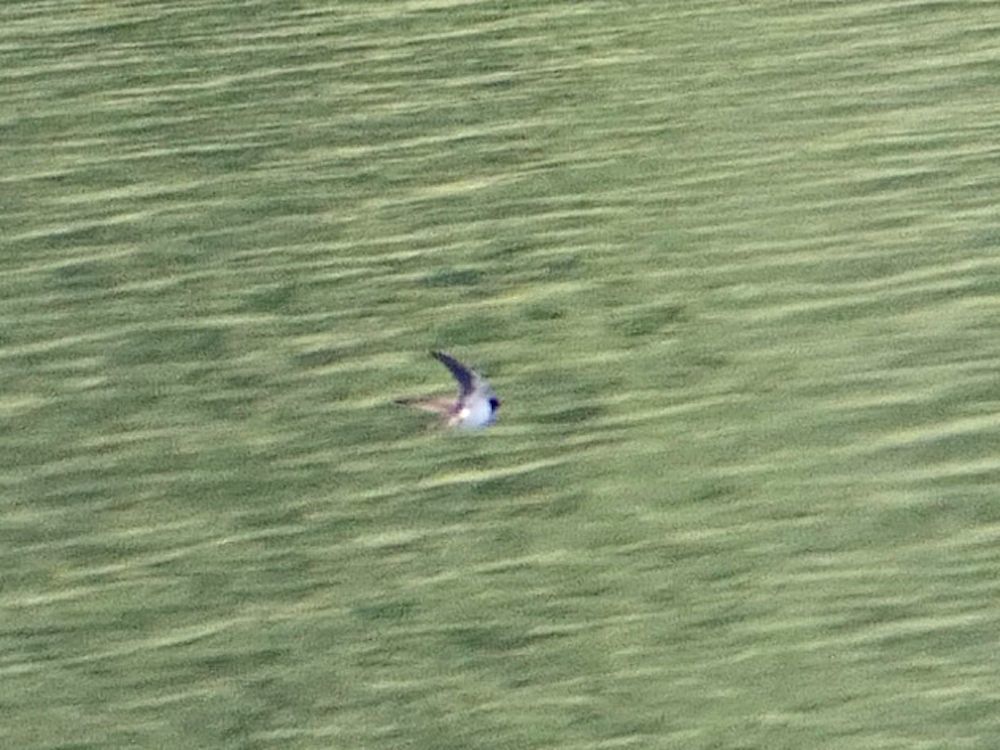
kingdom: Animalia
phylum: Chordata
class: Aves
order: Passeriformes
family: Hirundinidae
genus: Hirundo
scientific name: Hirundo rustica
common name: Barn swallow
